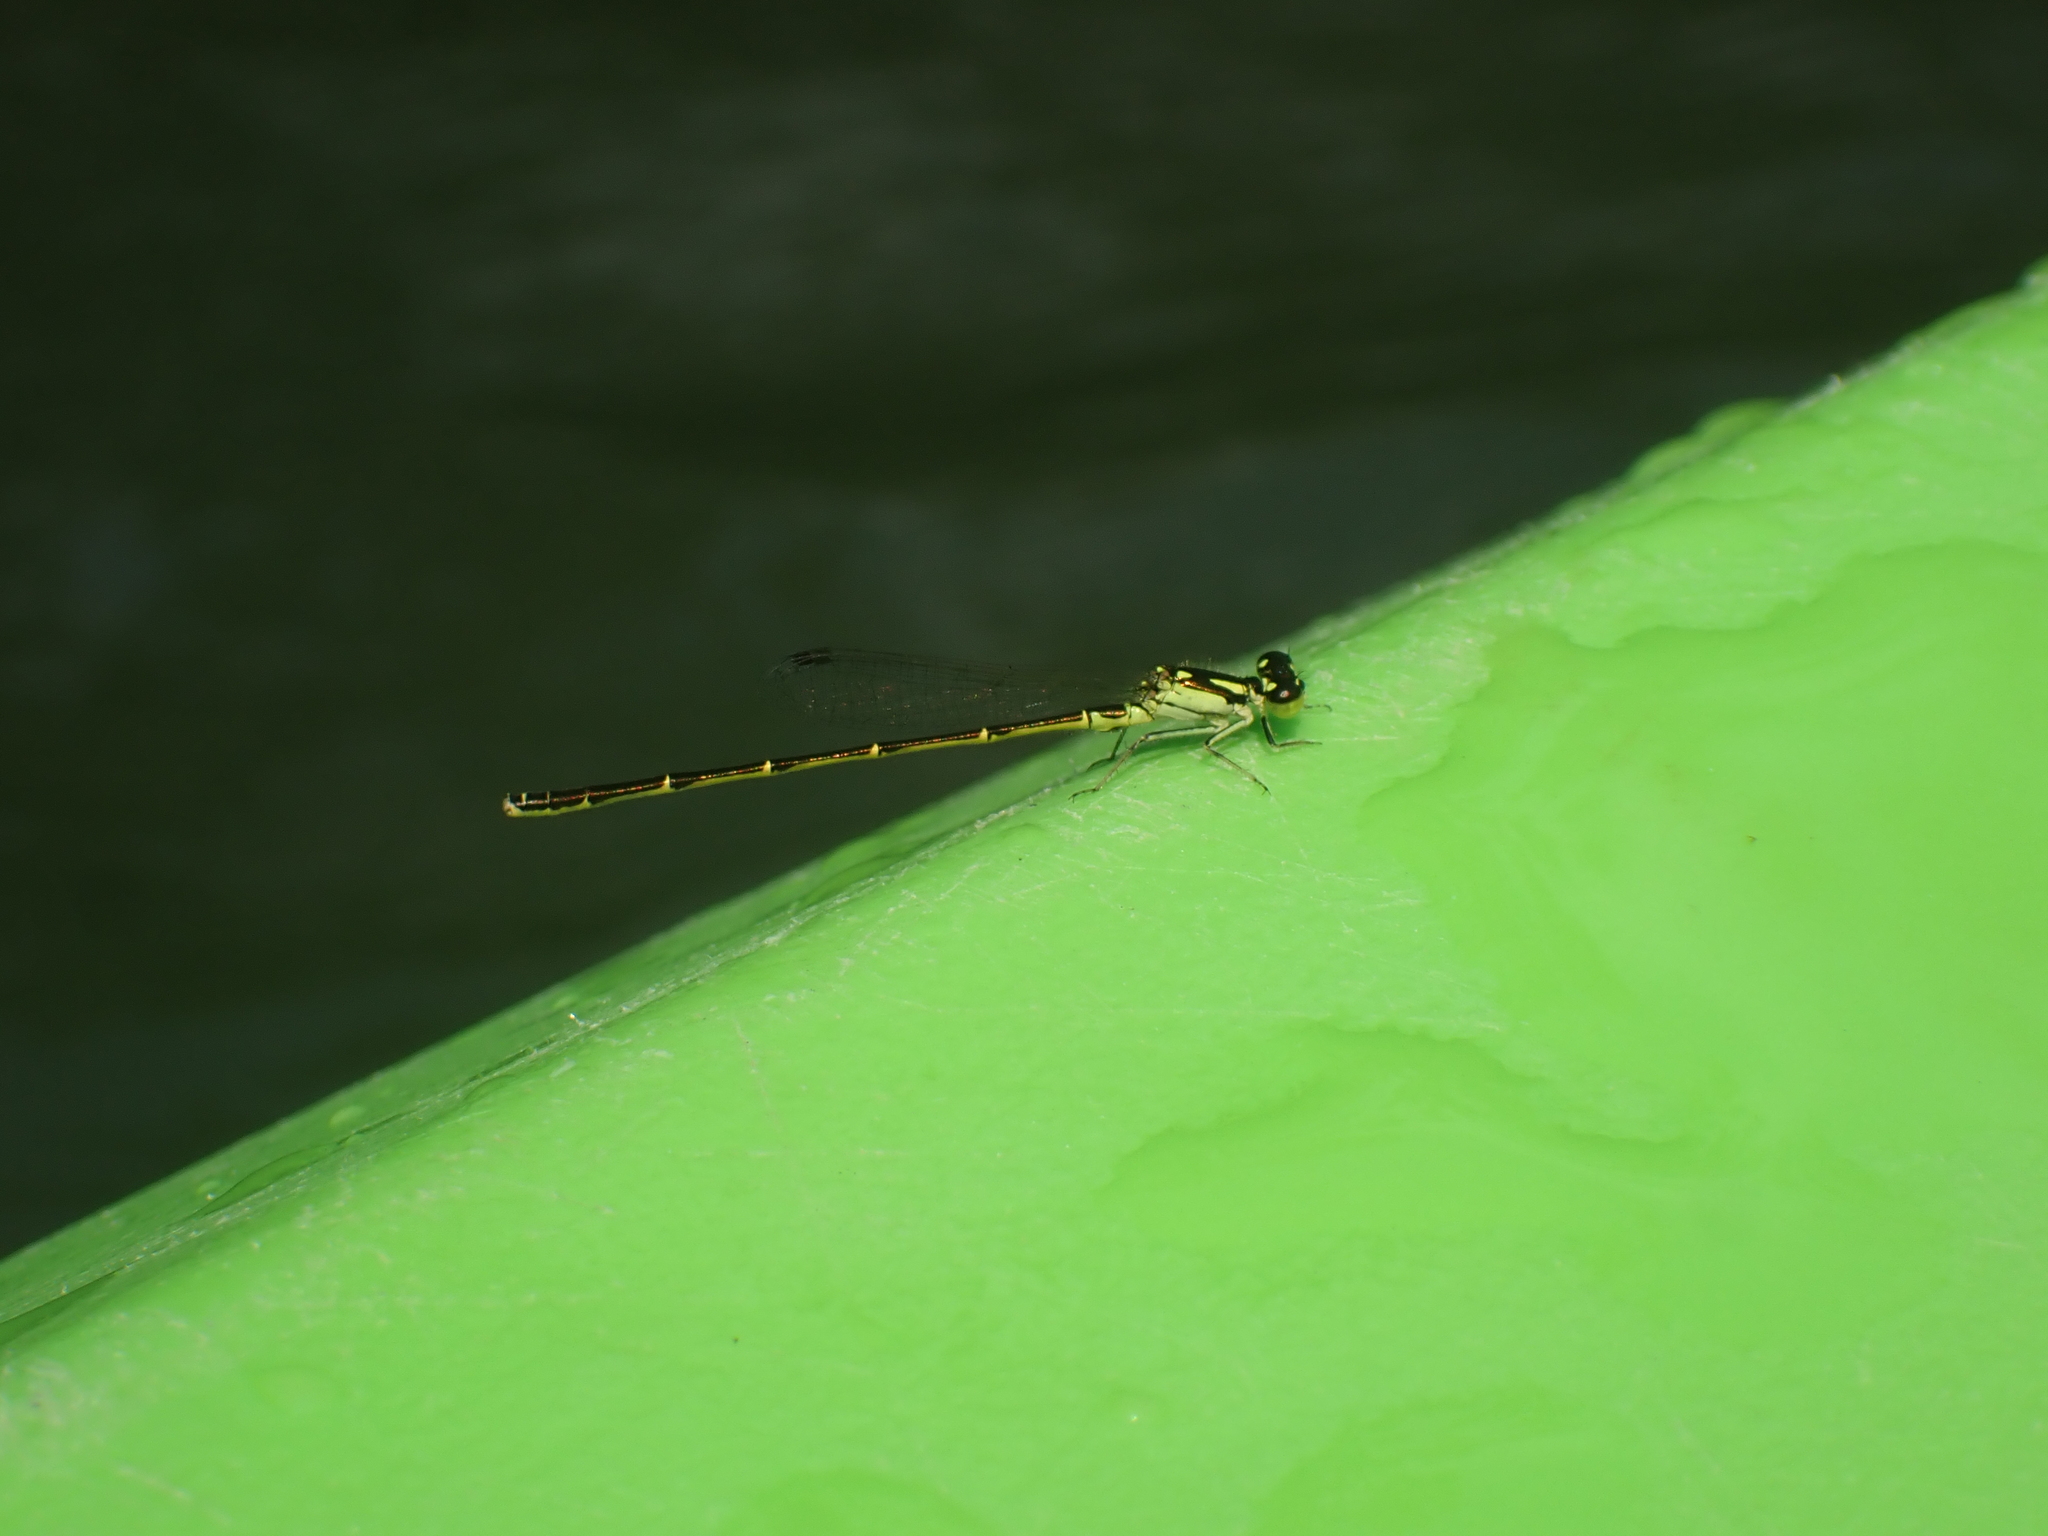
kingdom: Animalia
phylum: Arthropoda
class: Insecta
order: Odonata
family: Coenagrionidae
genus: Ischnura
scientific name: Ischnura posita
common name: Fragile forktail
